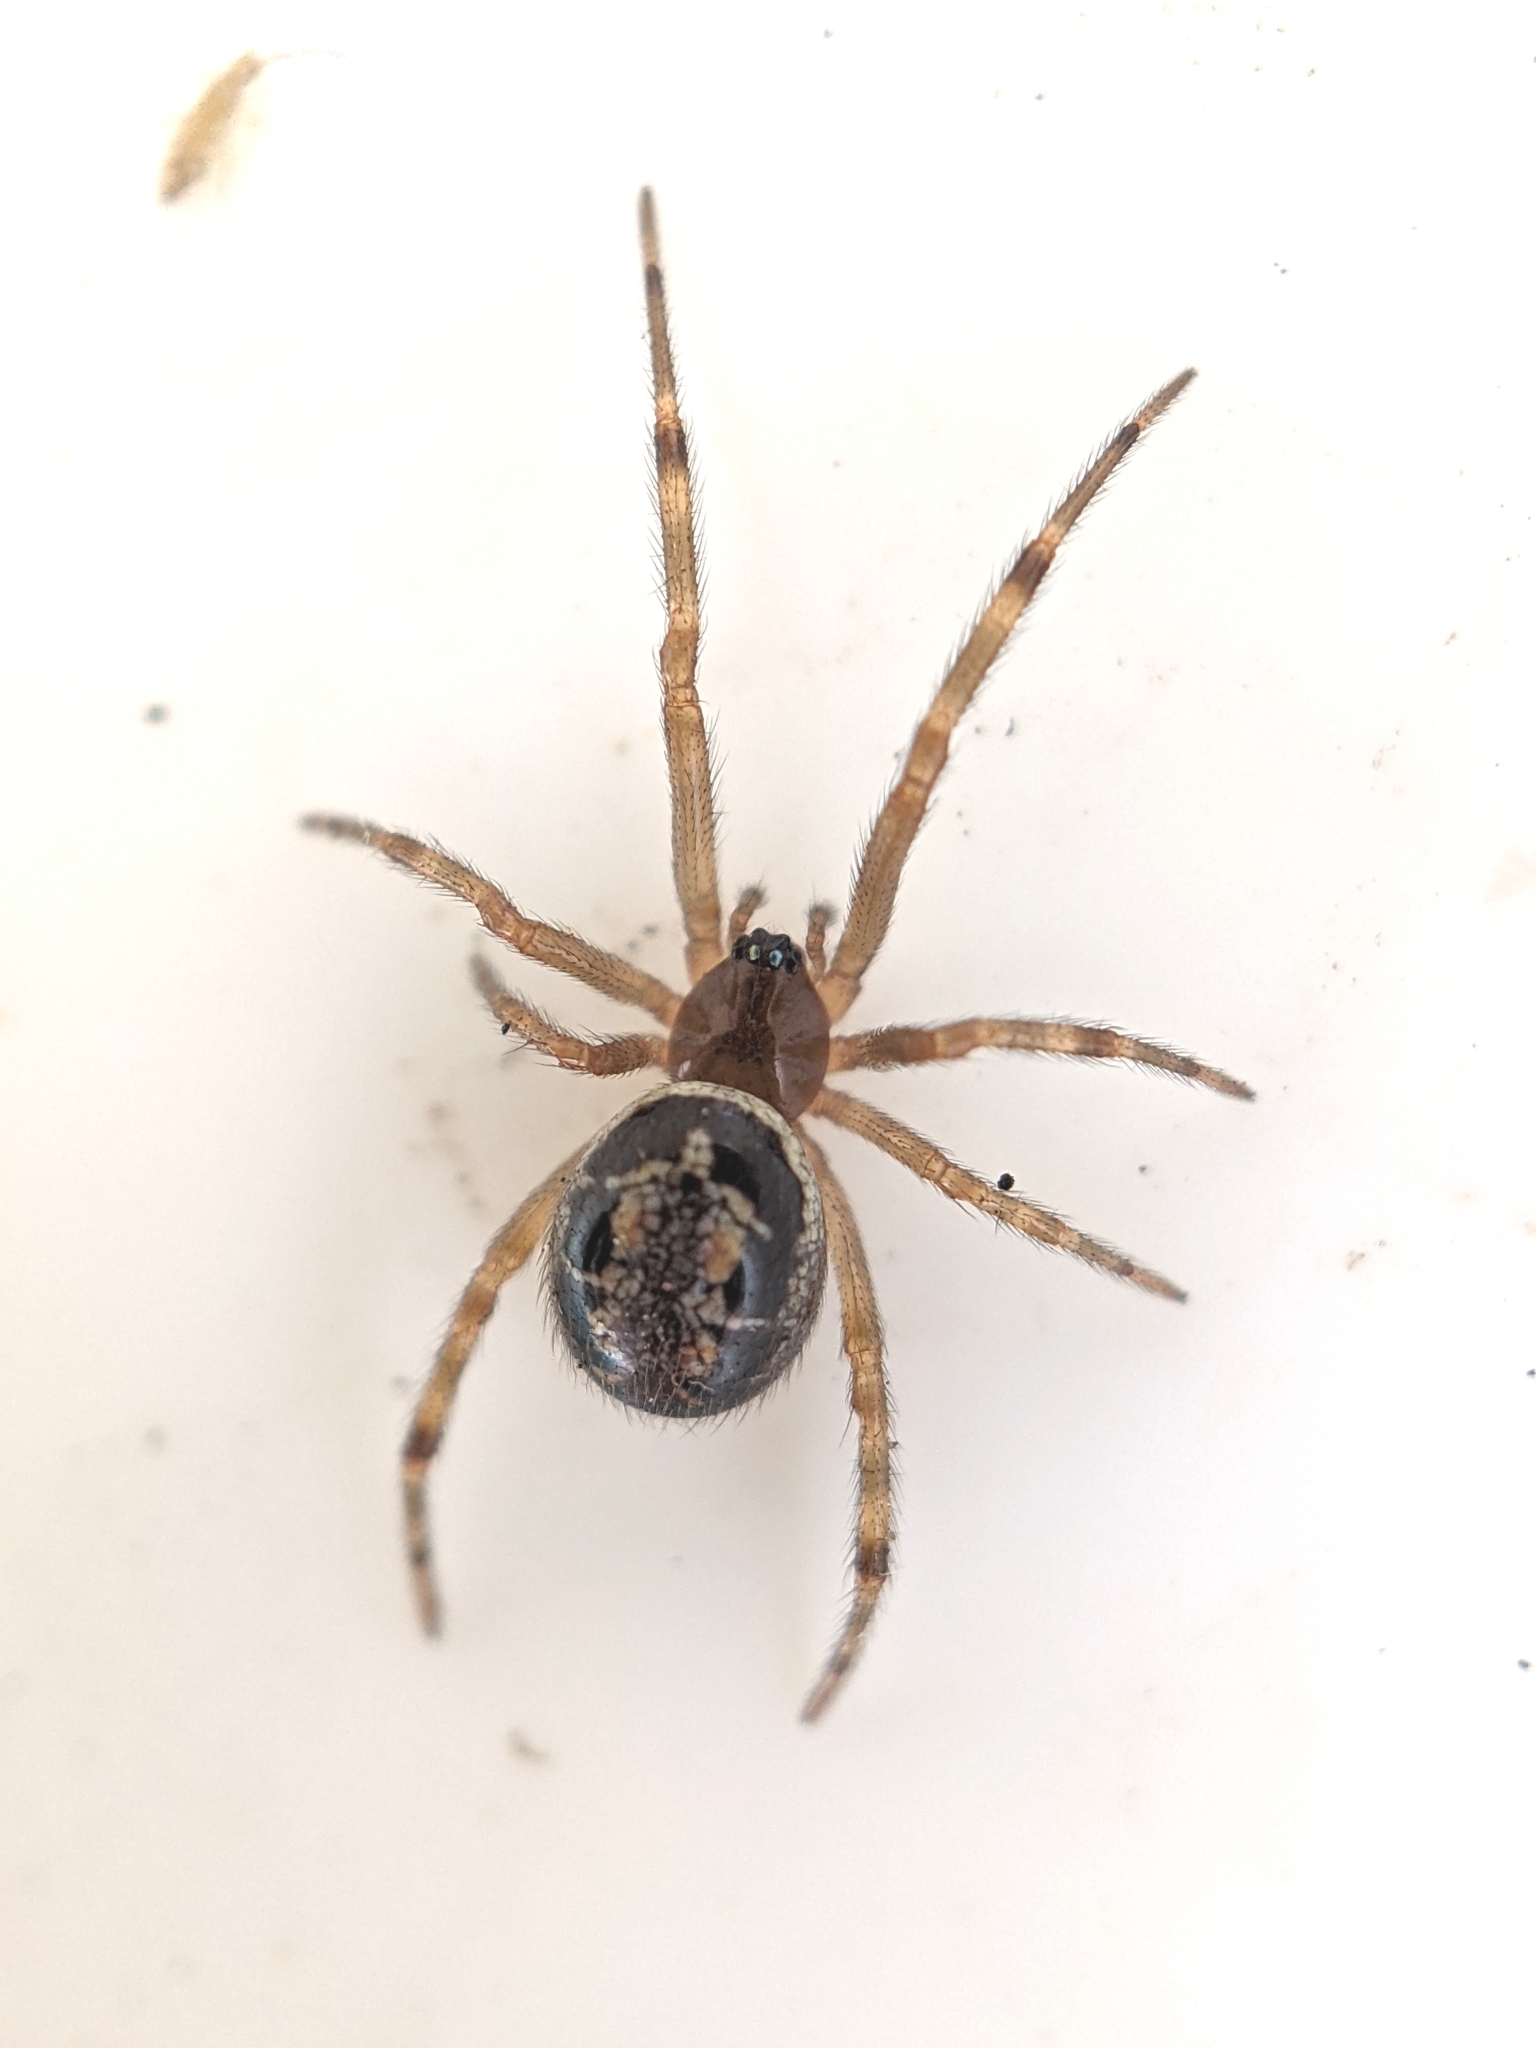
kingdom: Animalia
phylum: Arthropoda
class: Arachnida
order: Araneae
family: Theridiidae
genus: Steatoda
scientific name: Steatoda nobilis
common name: Cobweb weaver
